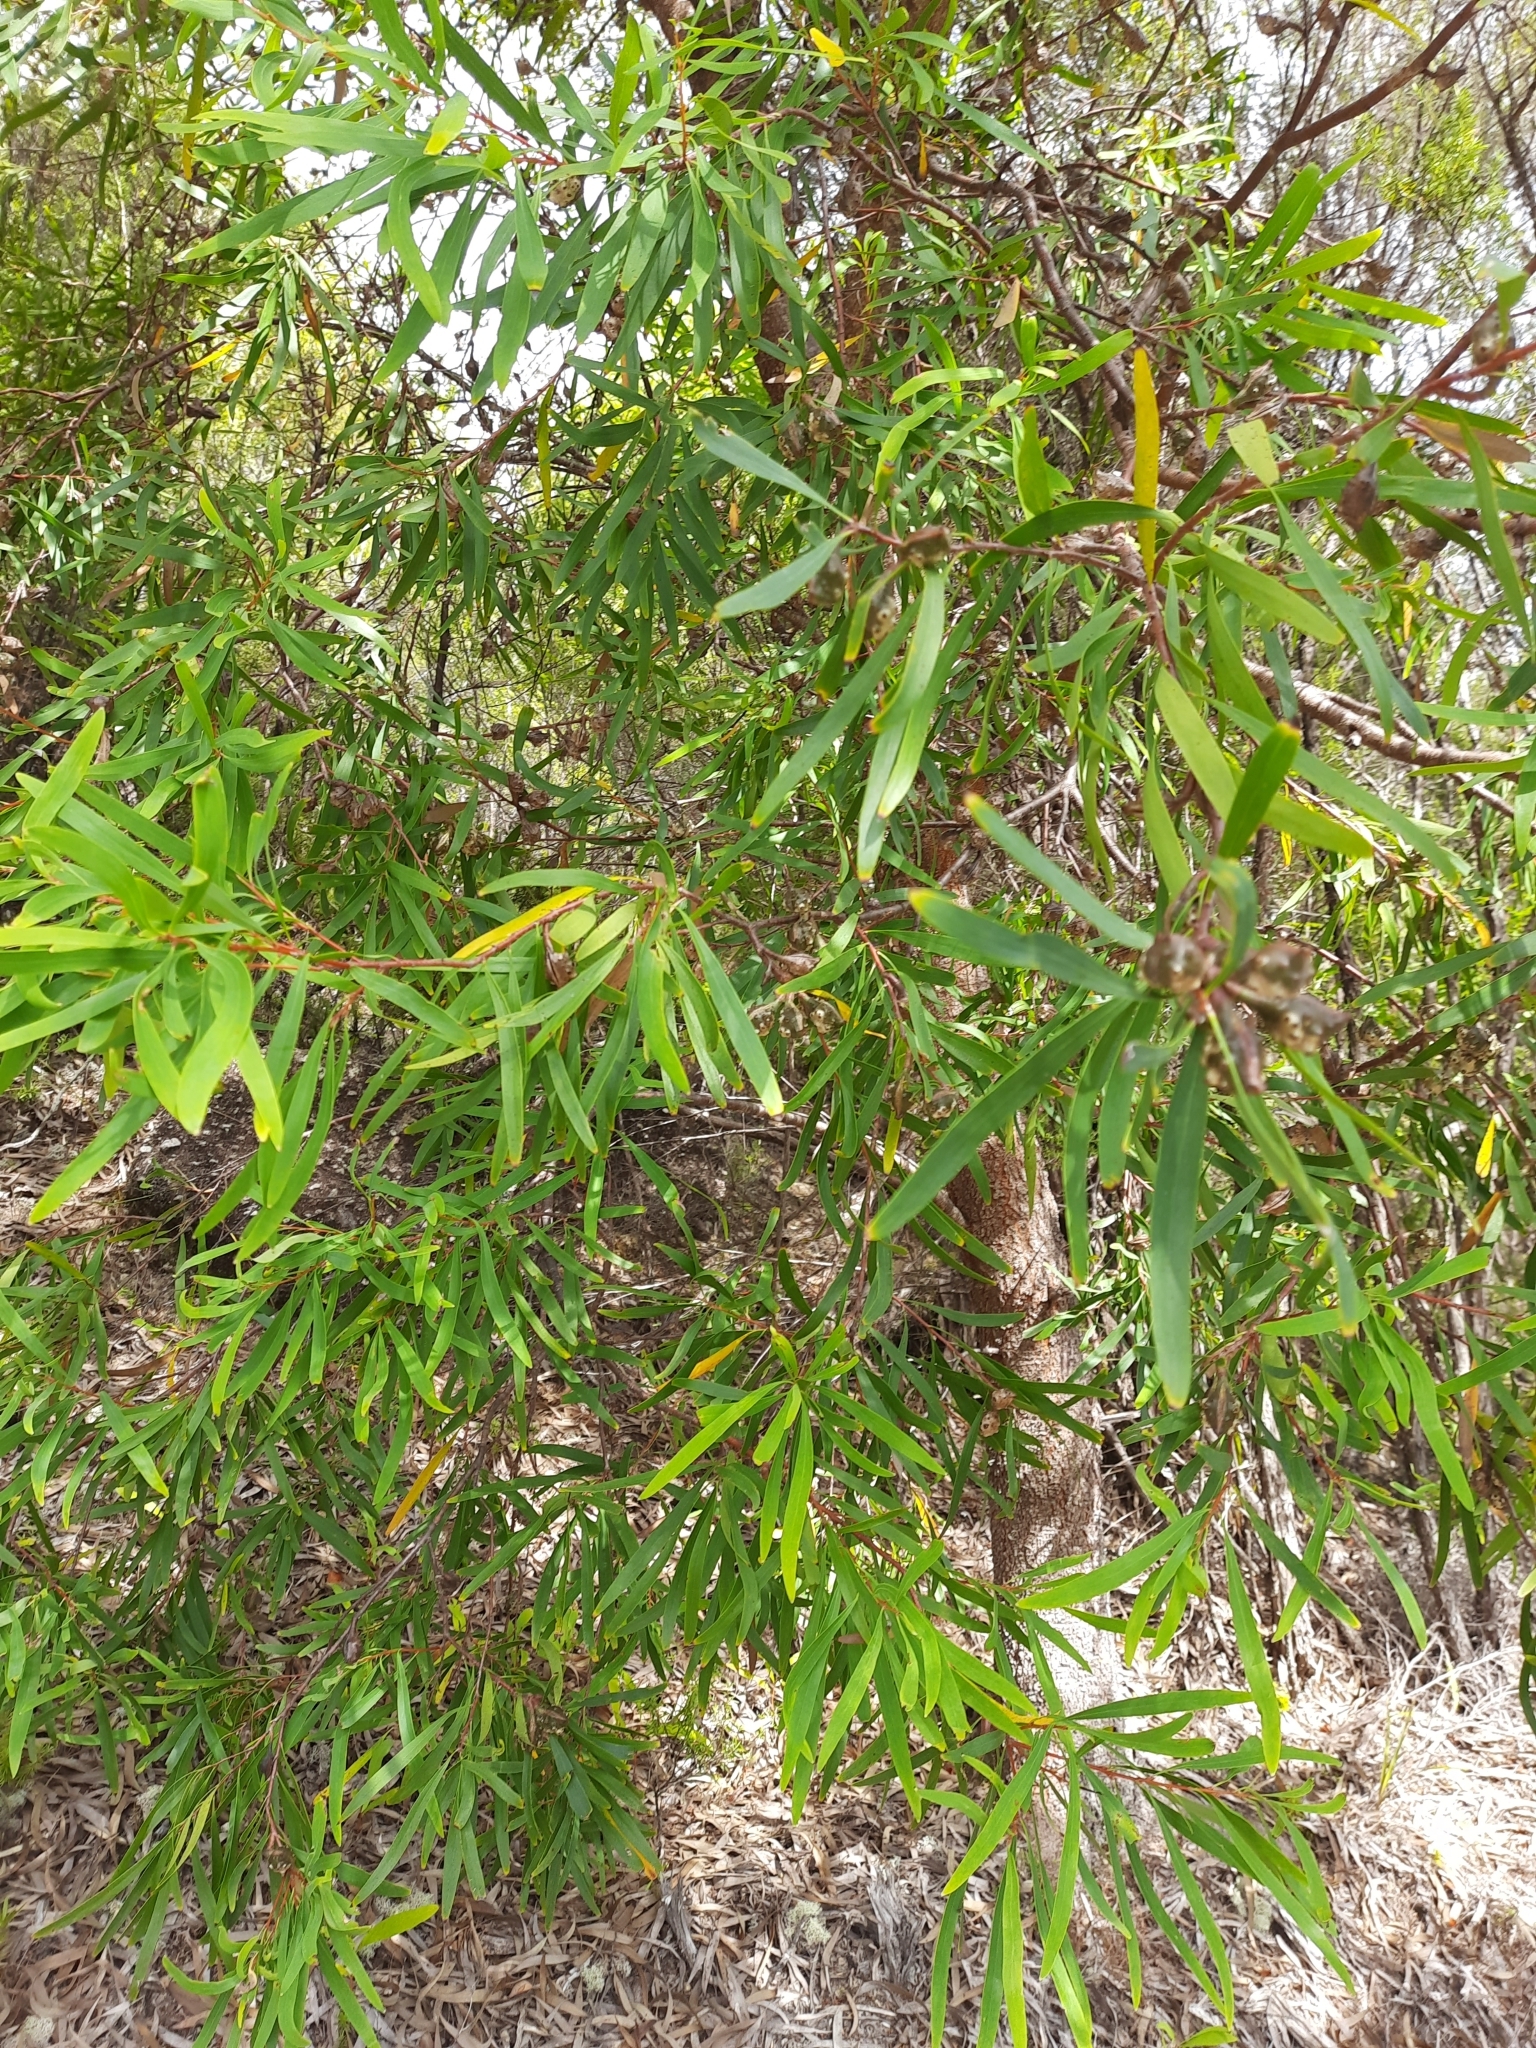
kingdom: Plantae
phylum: Tracheophyta
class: Magnoliopsida
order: Proteales
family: Proteaceae
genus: Hakea
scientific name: Hakea salicifolia
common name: Willow hakea
